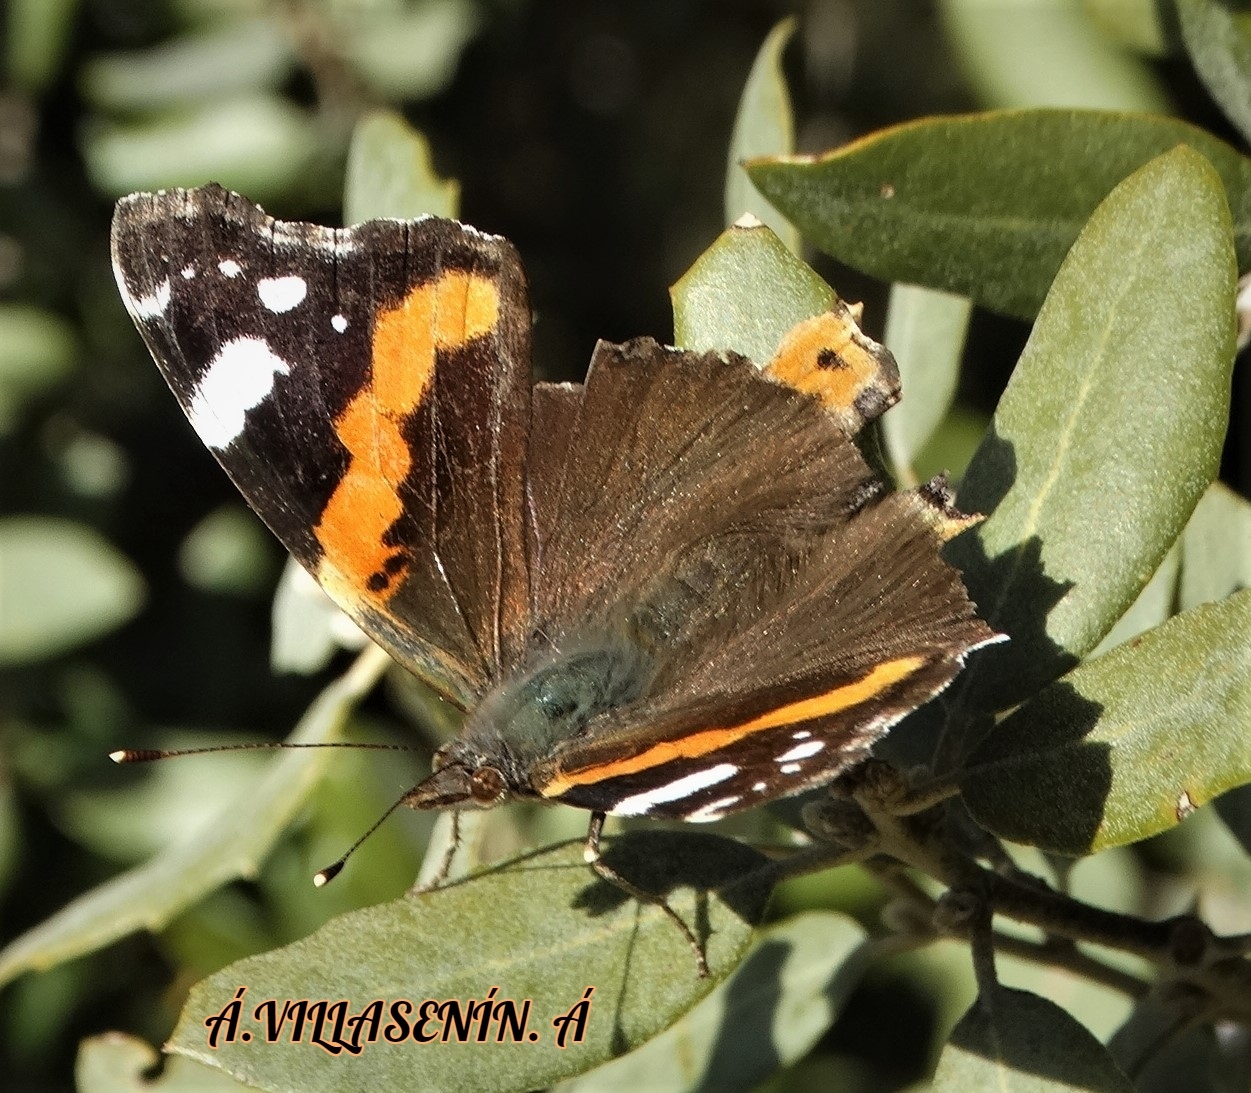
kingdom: Animalia
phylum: Arthropoda
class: Insecta
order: Lepidoptera
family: Nymphalidae
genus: Vanessa
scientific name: Vanessa atalanta
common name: Red admiral
